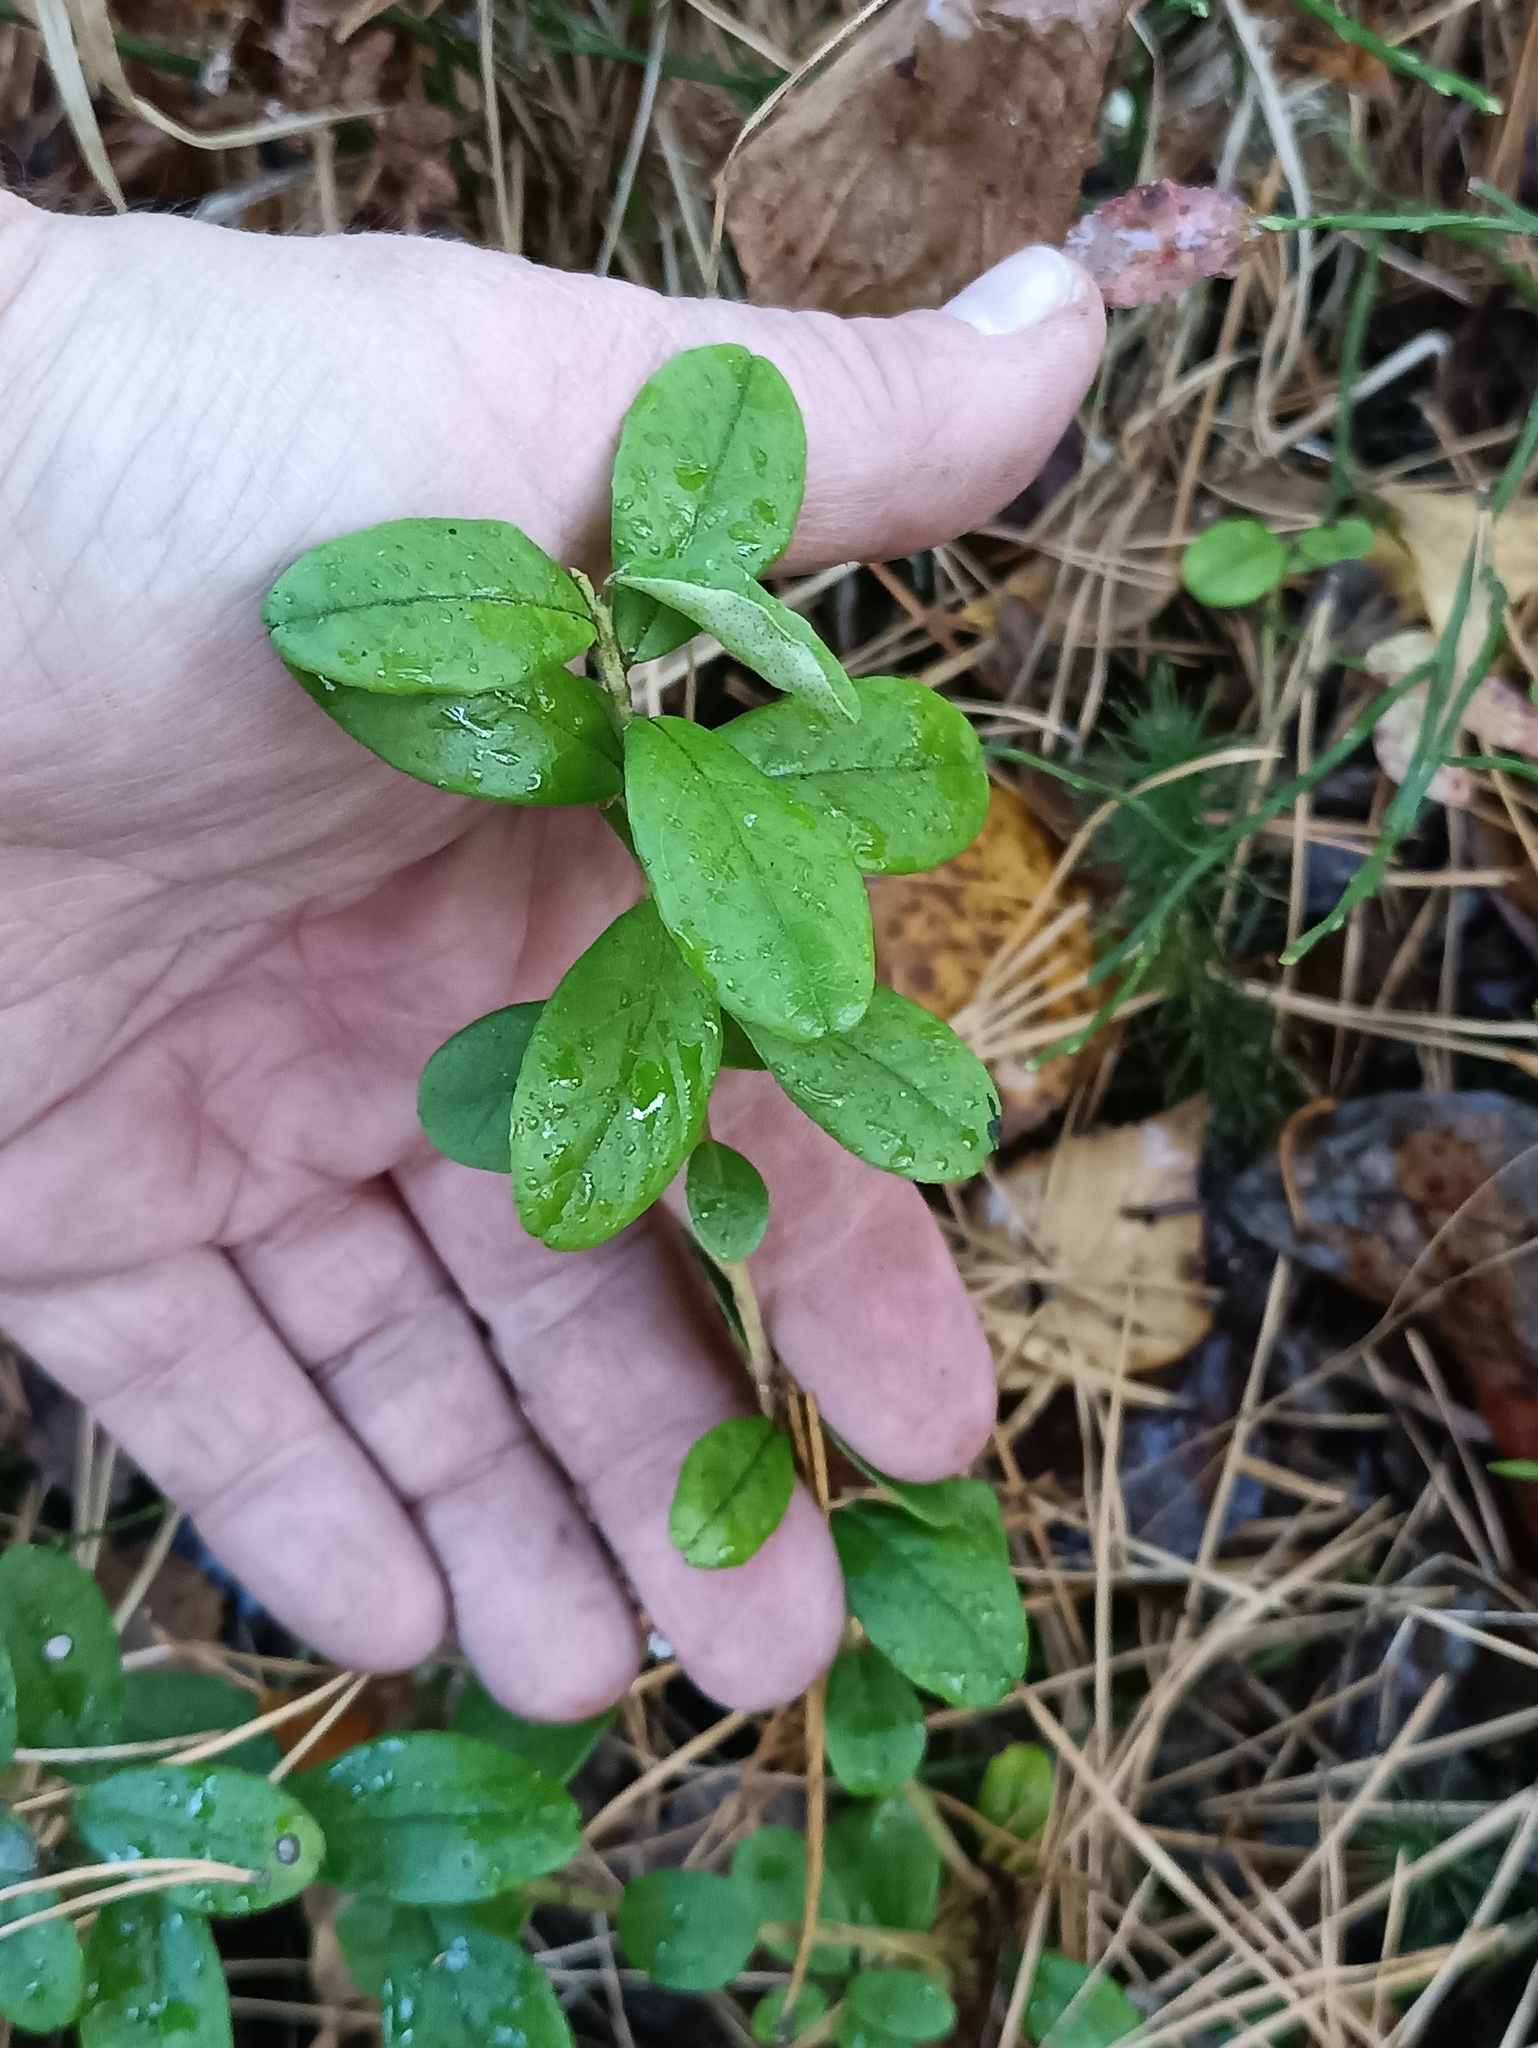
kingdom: Plantae
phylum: Tracheophyta
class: Magnoliopsida
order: Ericales
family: Ericaceae
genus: Vaccinium
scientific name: Vaccinium vitis-idaea
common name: Cowberry
